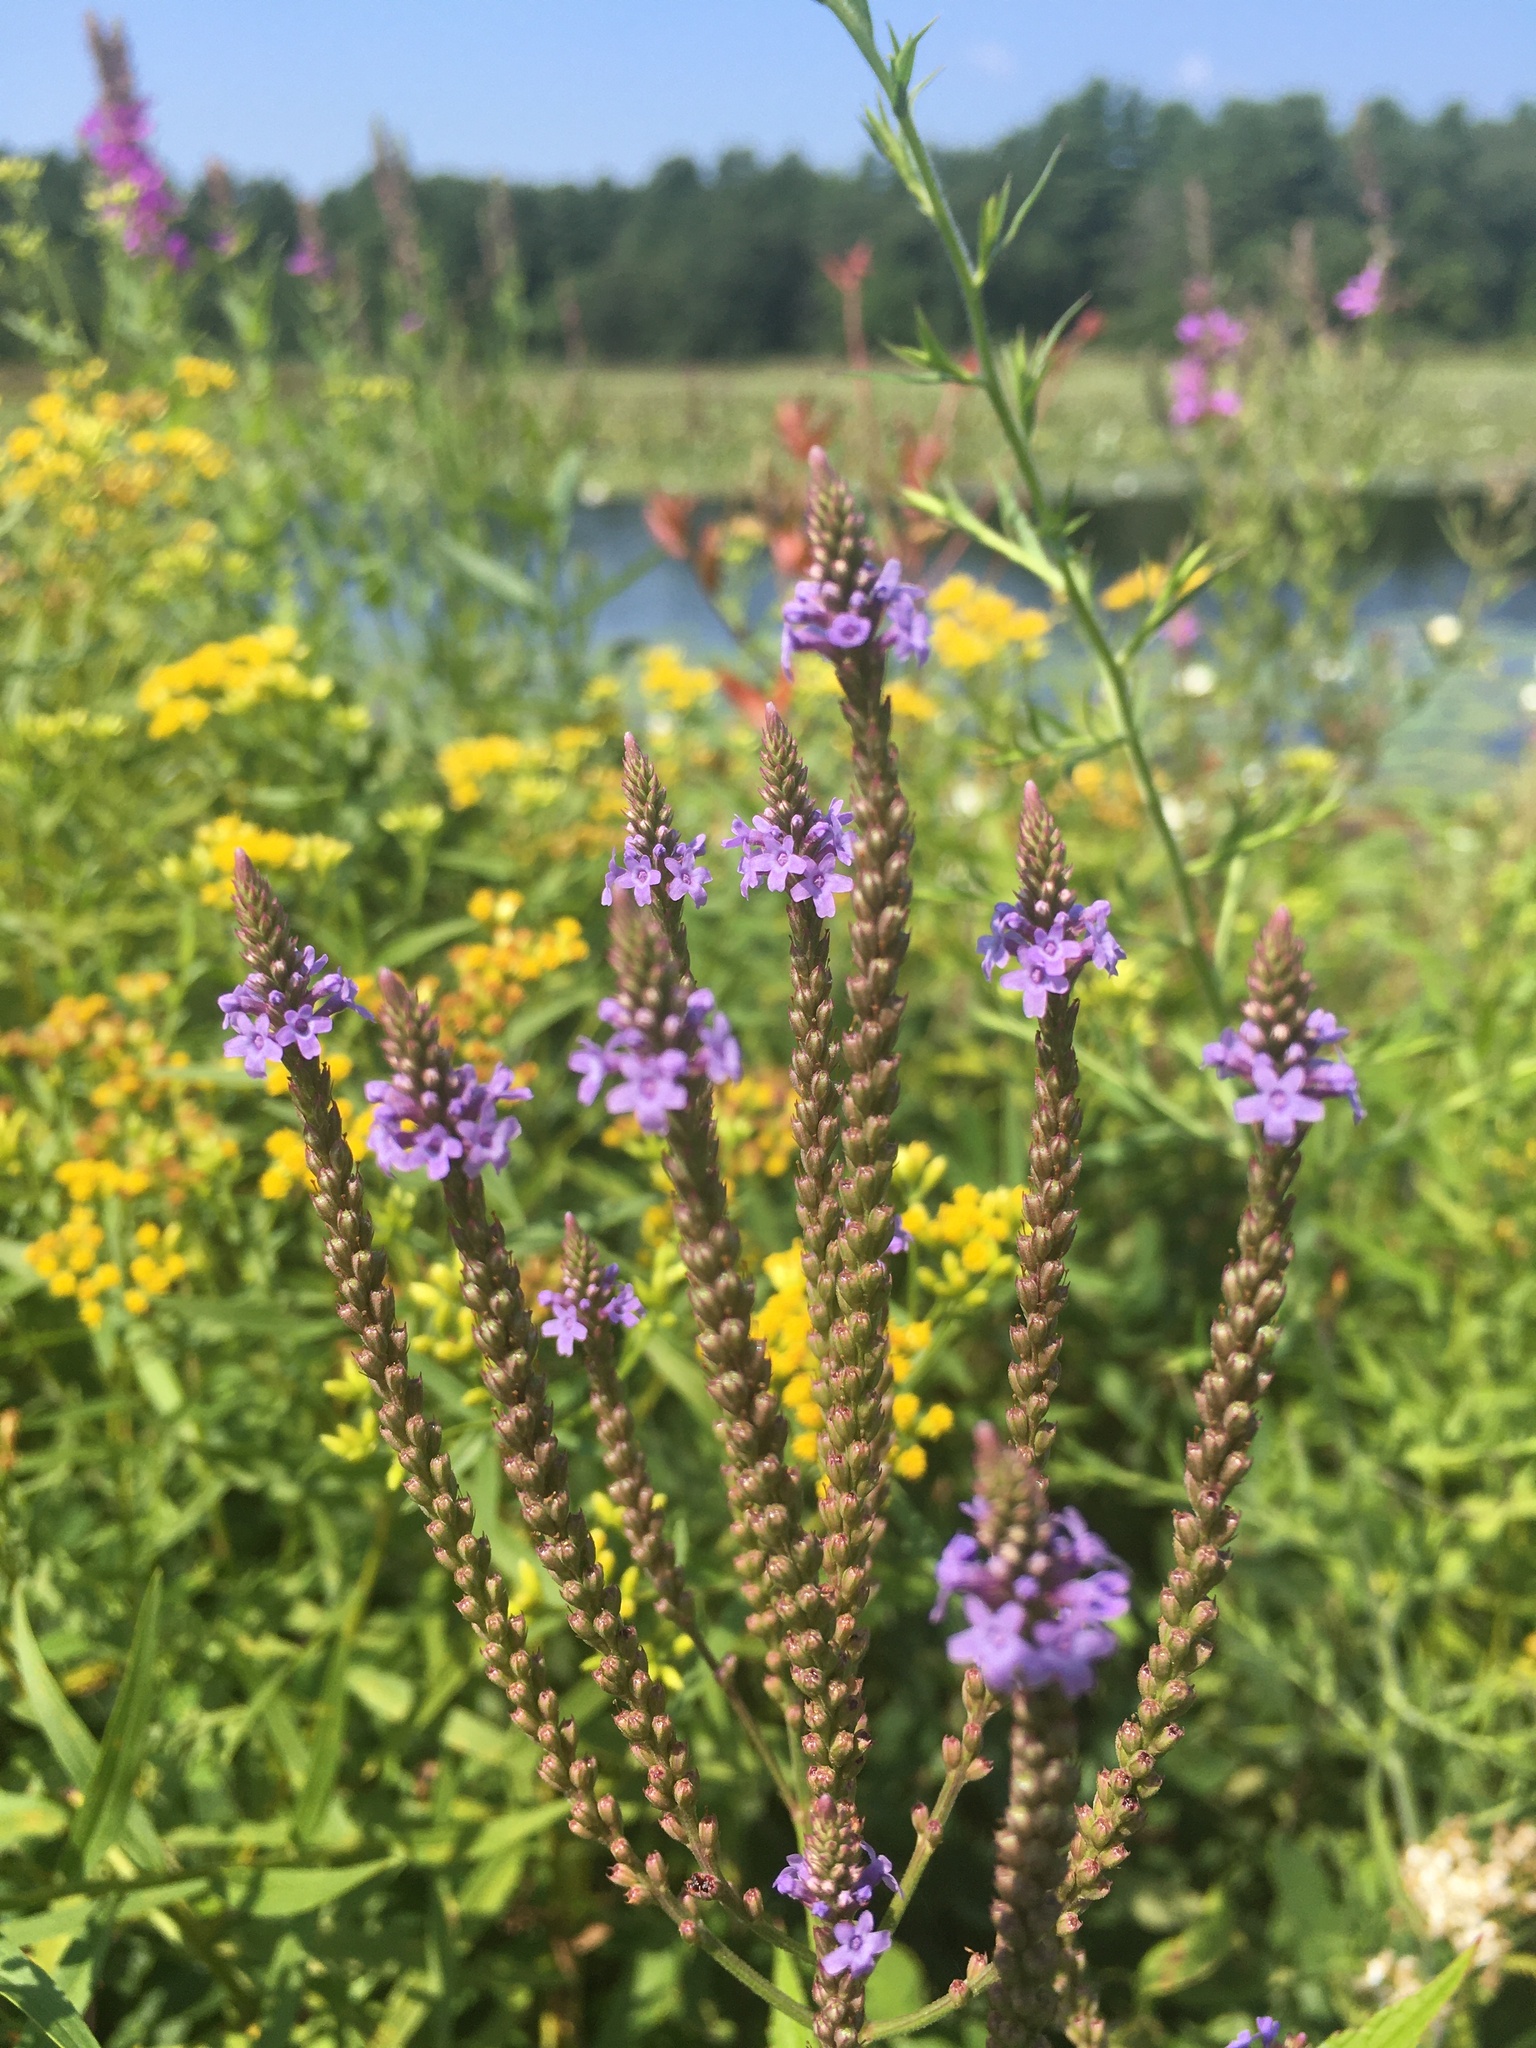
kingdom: Plantae
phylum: Tracheophyta
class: Magnoliopsida
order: Lamiales
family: Verbenaceae
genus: Verbena
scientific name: Verbena hastata
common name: American blue vervain
